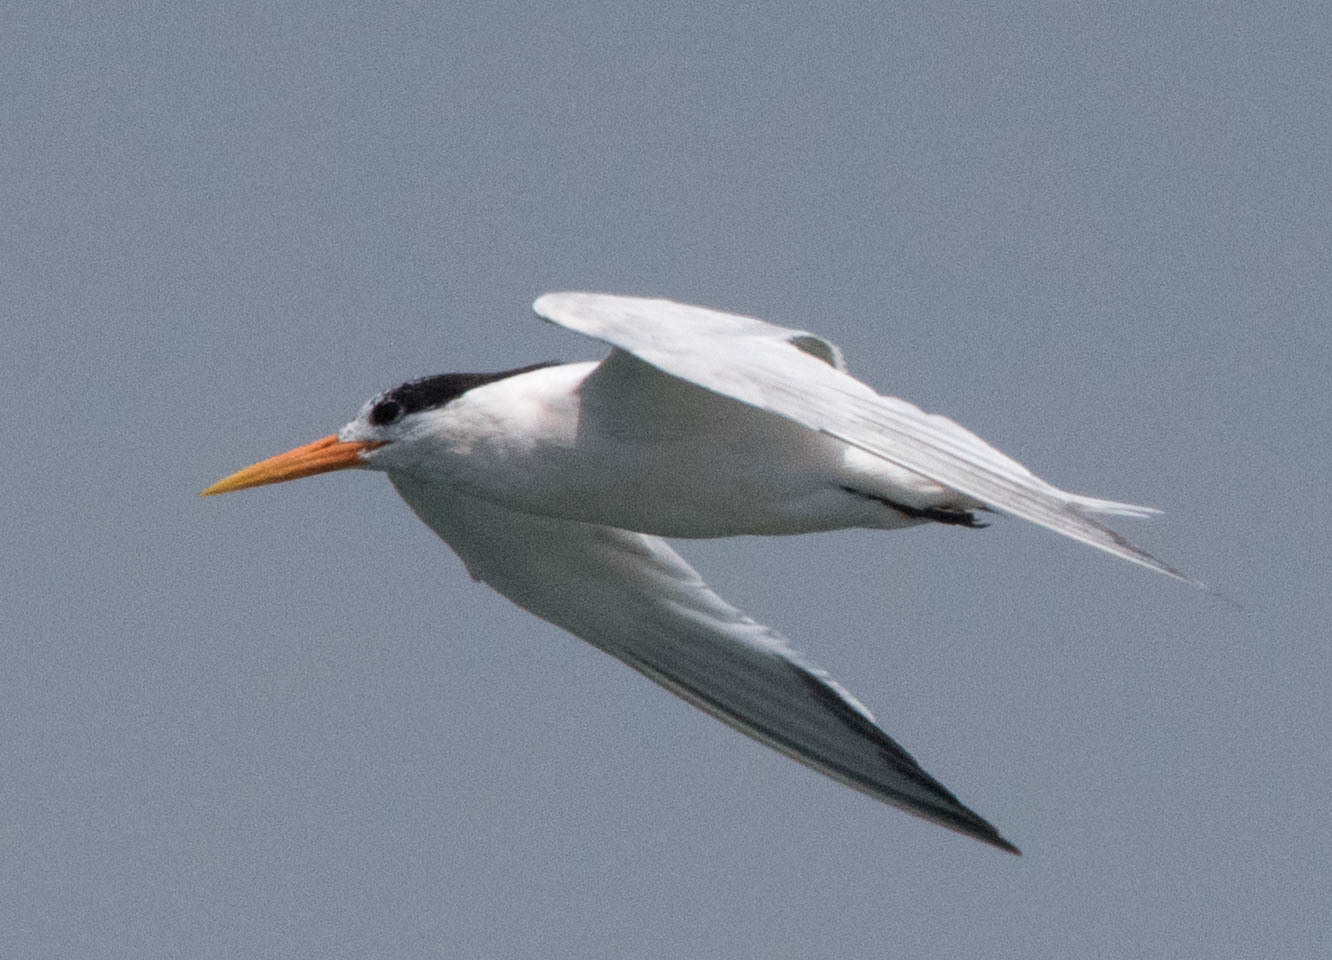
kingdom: Animalia
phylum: Chordata
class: Aves
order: Charadriiformes
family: Laridae
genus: Thalasseus
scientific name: Thalasseus elegans
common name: Elegant tern
